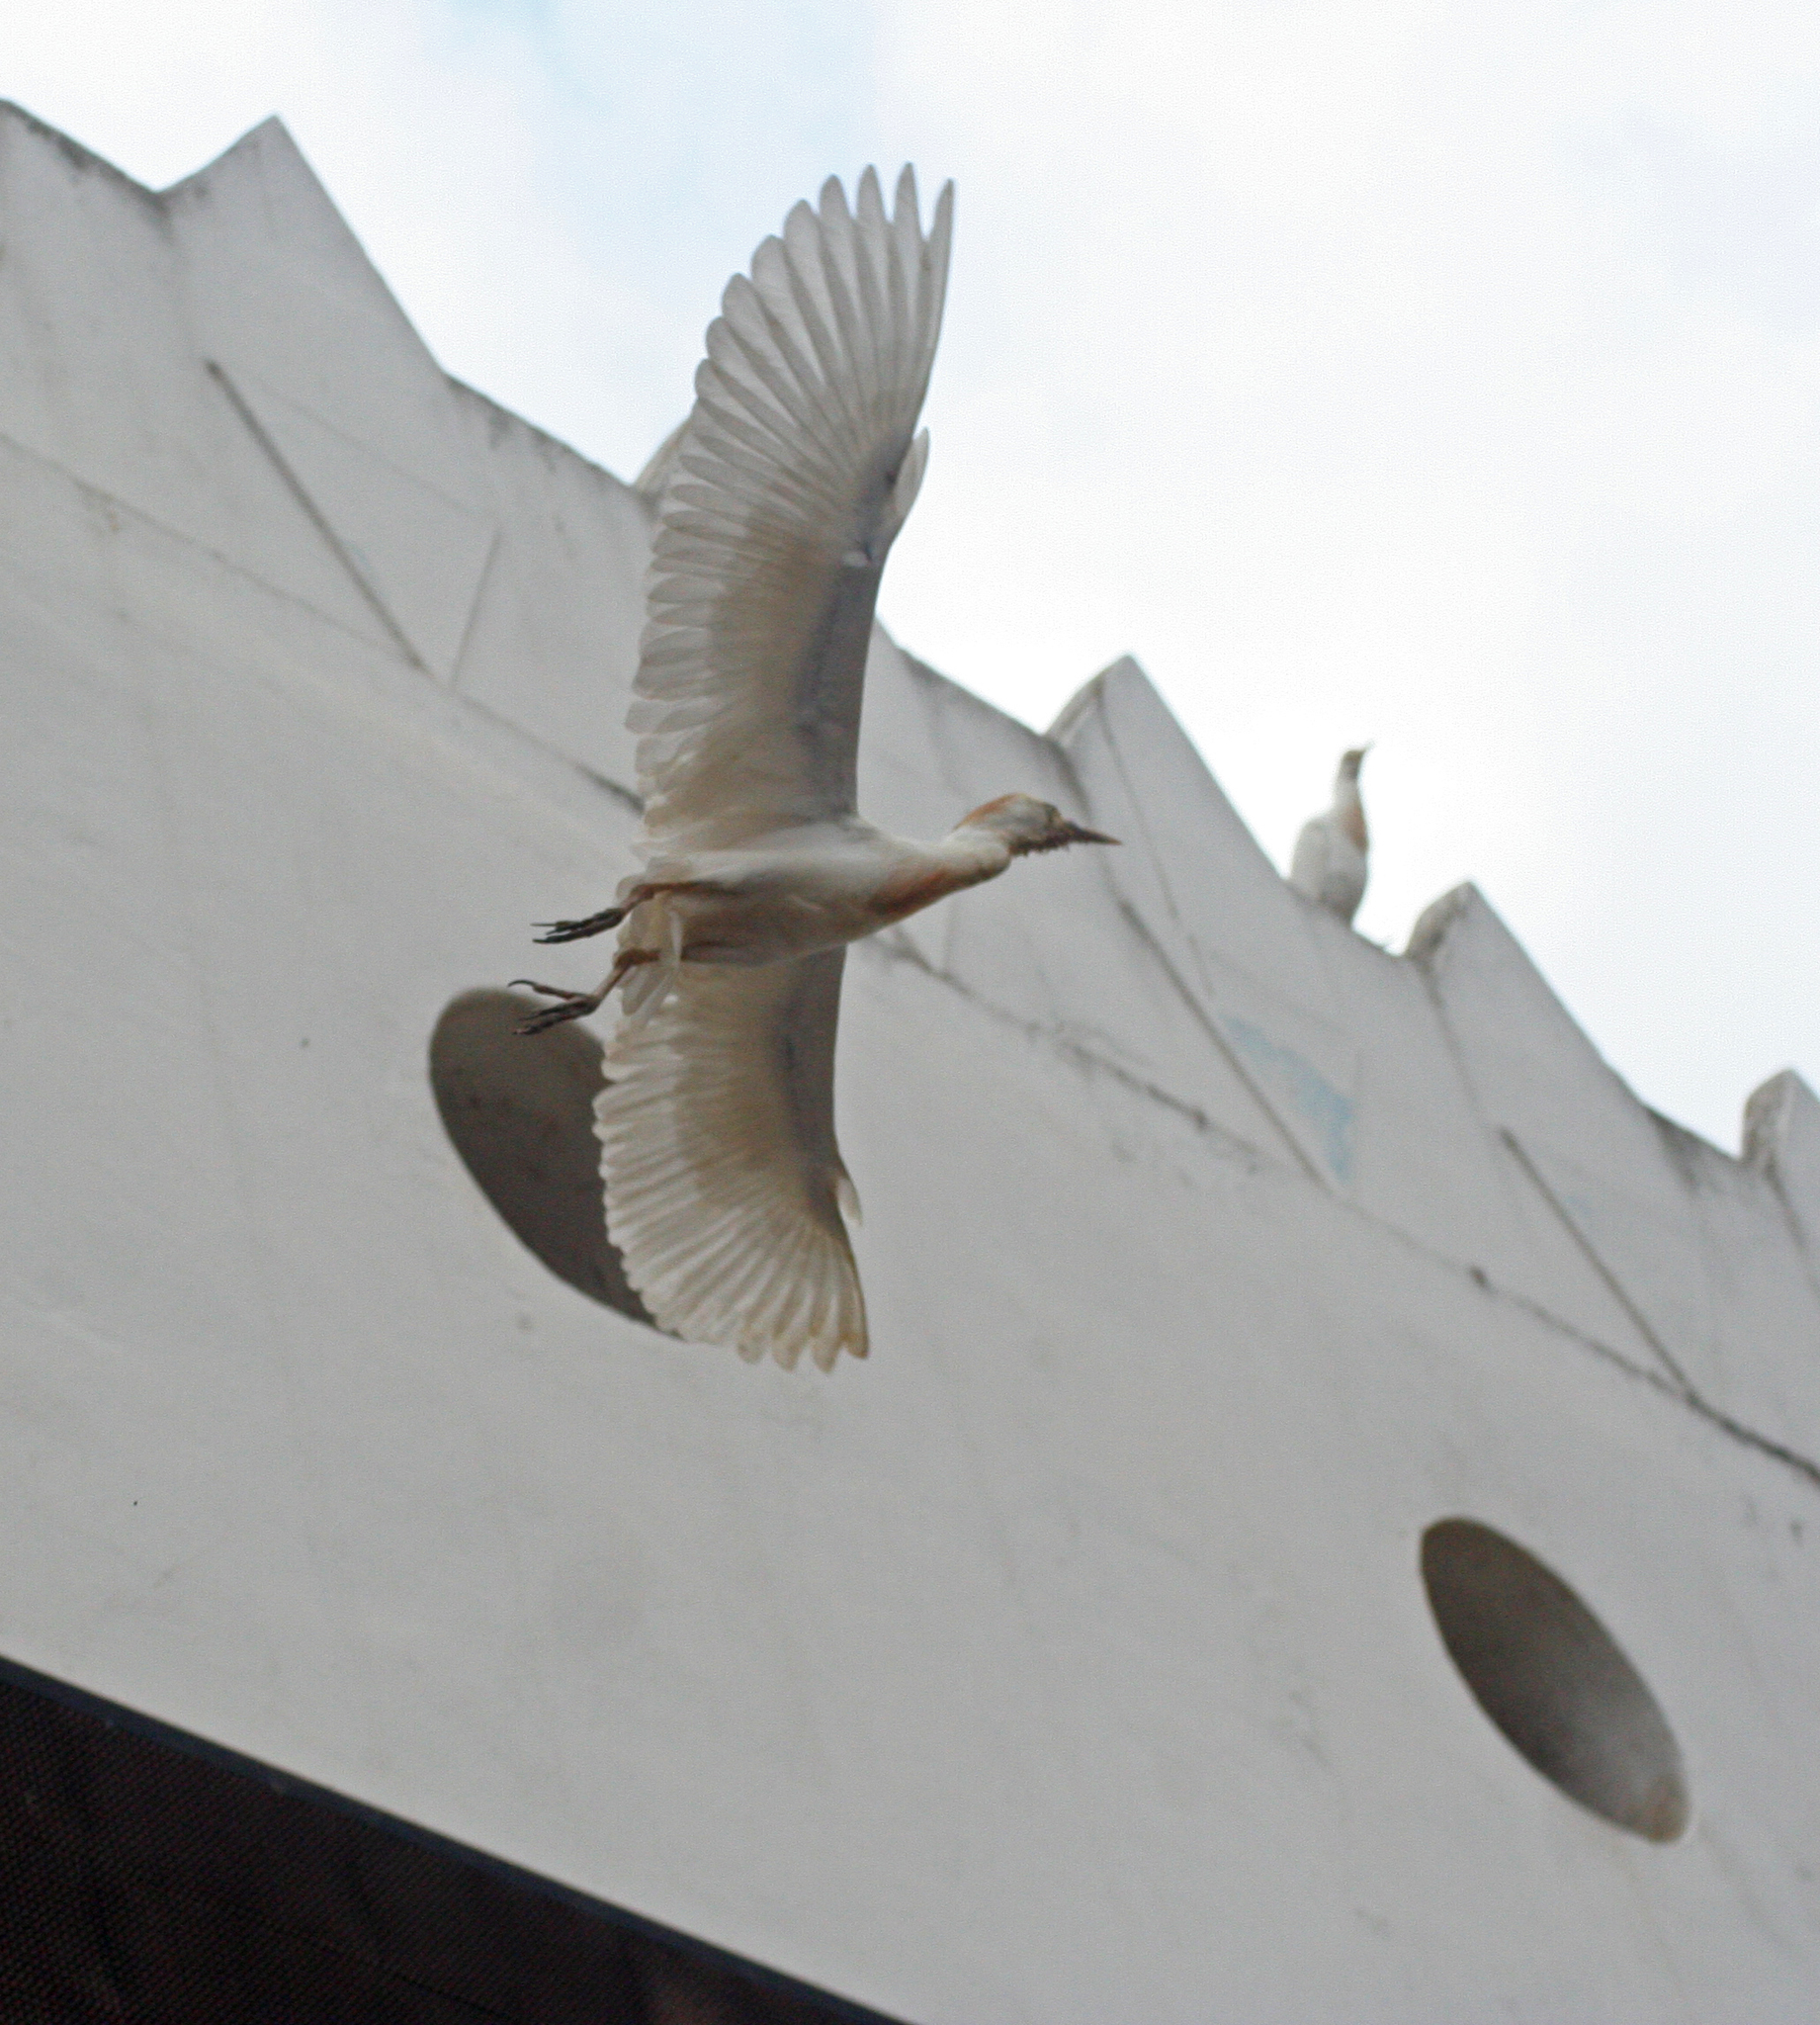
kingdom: Animalia
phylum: Chordata
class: Aves
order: Pelecaniformes
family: Ardeidae
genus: Bubulcus
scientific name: Bubulcus ibis
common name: Cattle egret
